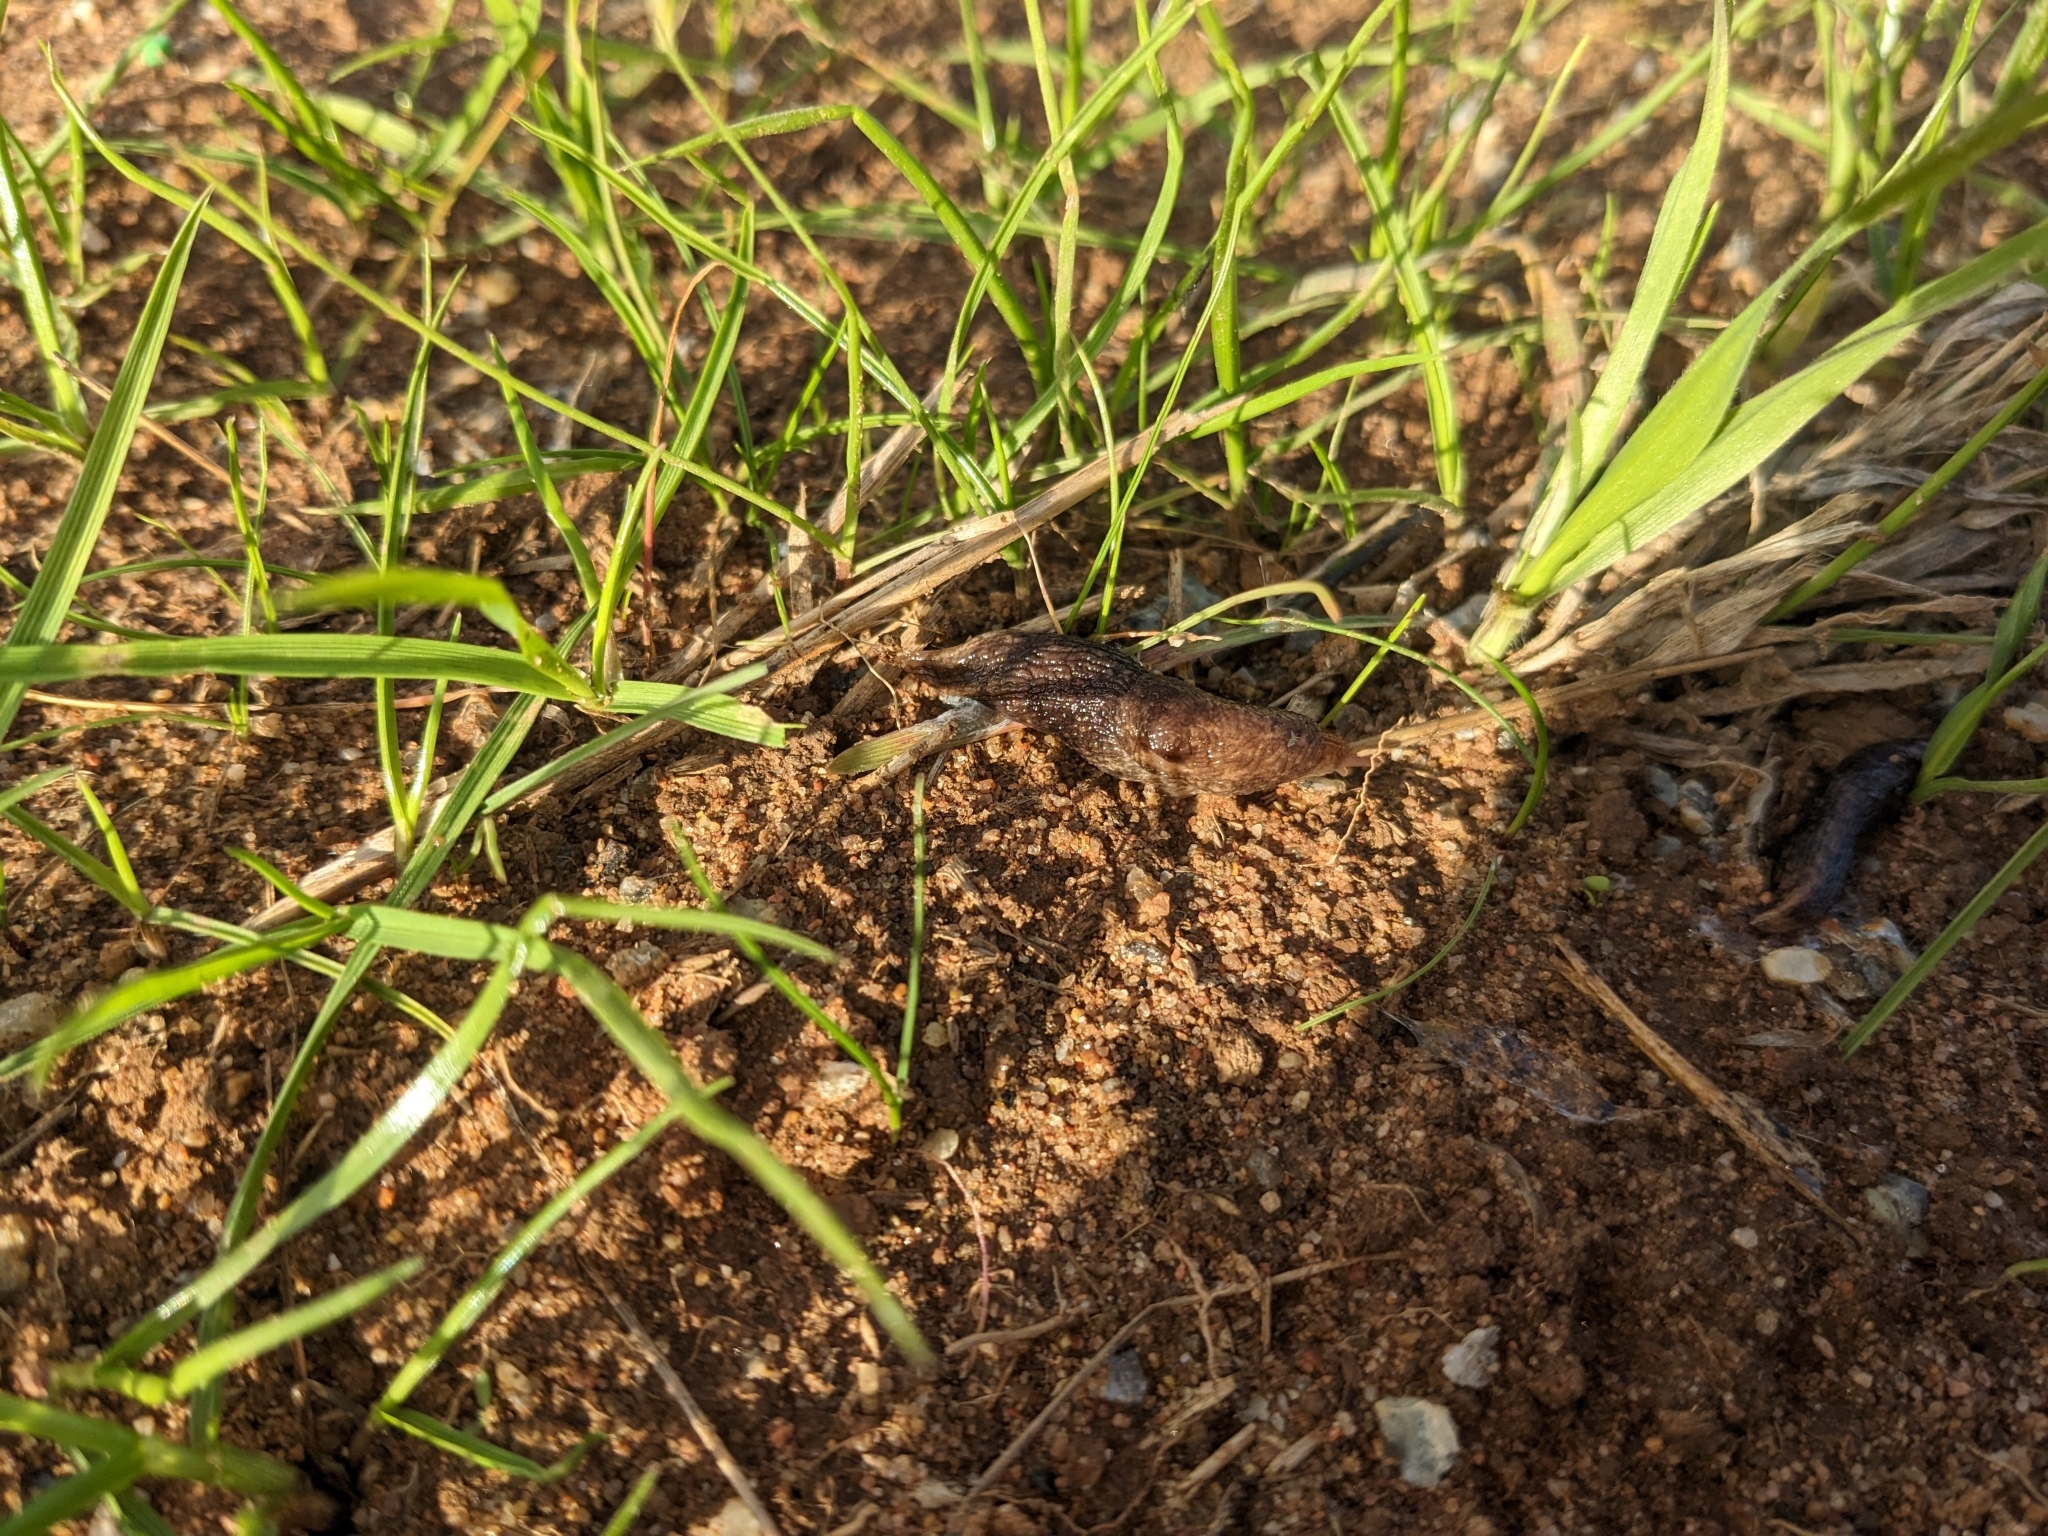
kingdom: Animalia
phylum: Mollusca
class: Gastropoda
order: Stylommatophora
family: Agriolimacidae
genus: Deroceras
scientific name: Deroceras reticulatum
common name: Gray field slug
